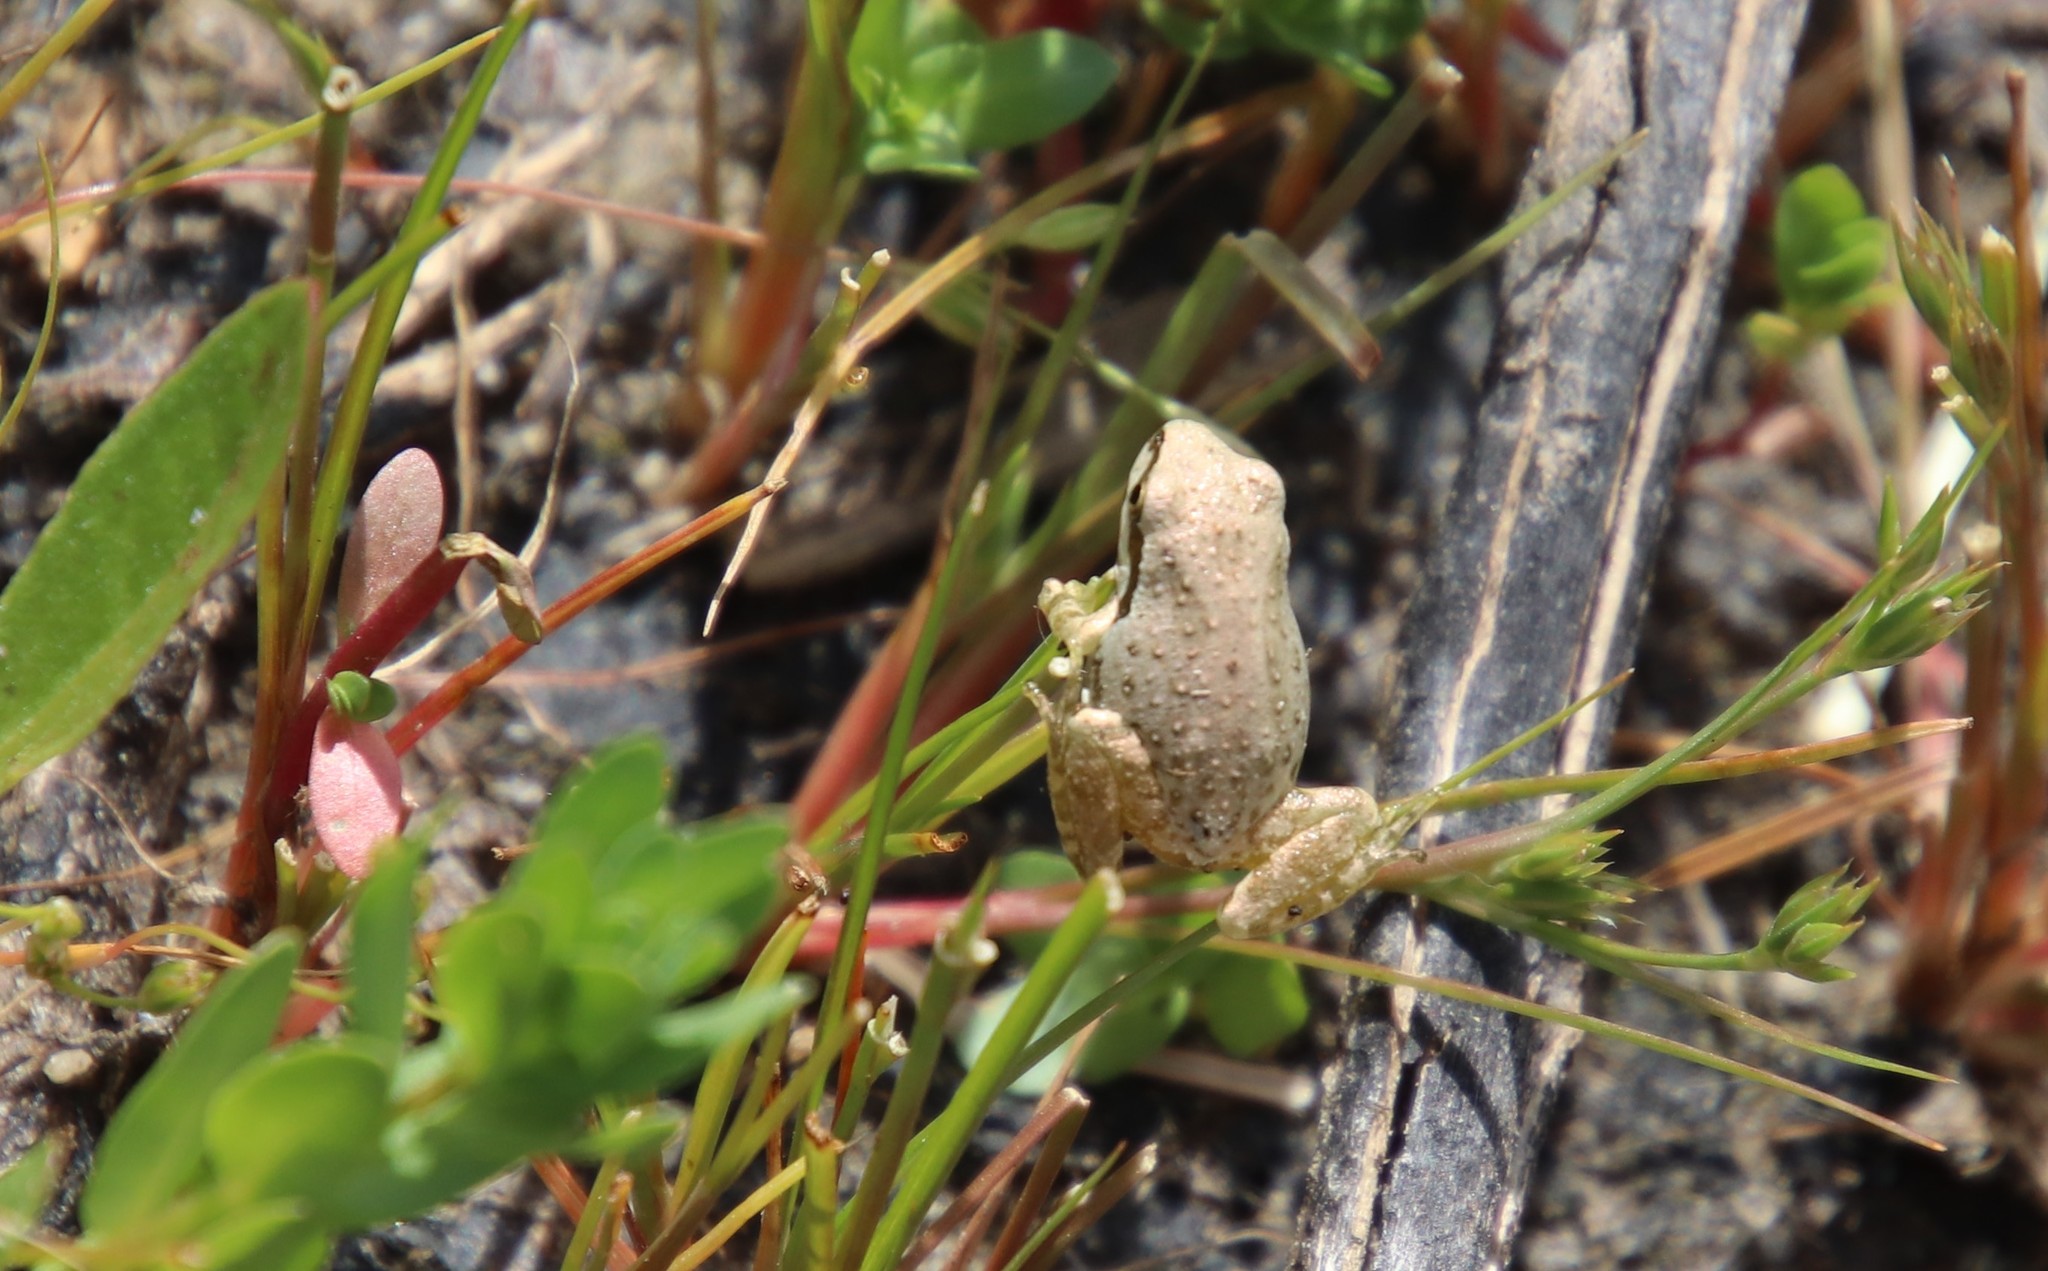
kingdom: Animalia
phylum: Chordata
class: Amphibia
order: Anura
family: Hylidae
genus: Pseudacris
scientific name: Pseudacris regilla
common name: Pacific chorus frog
